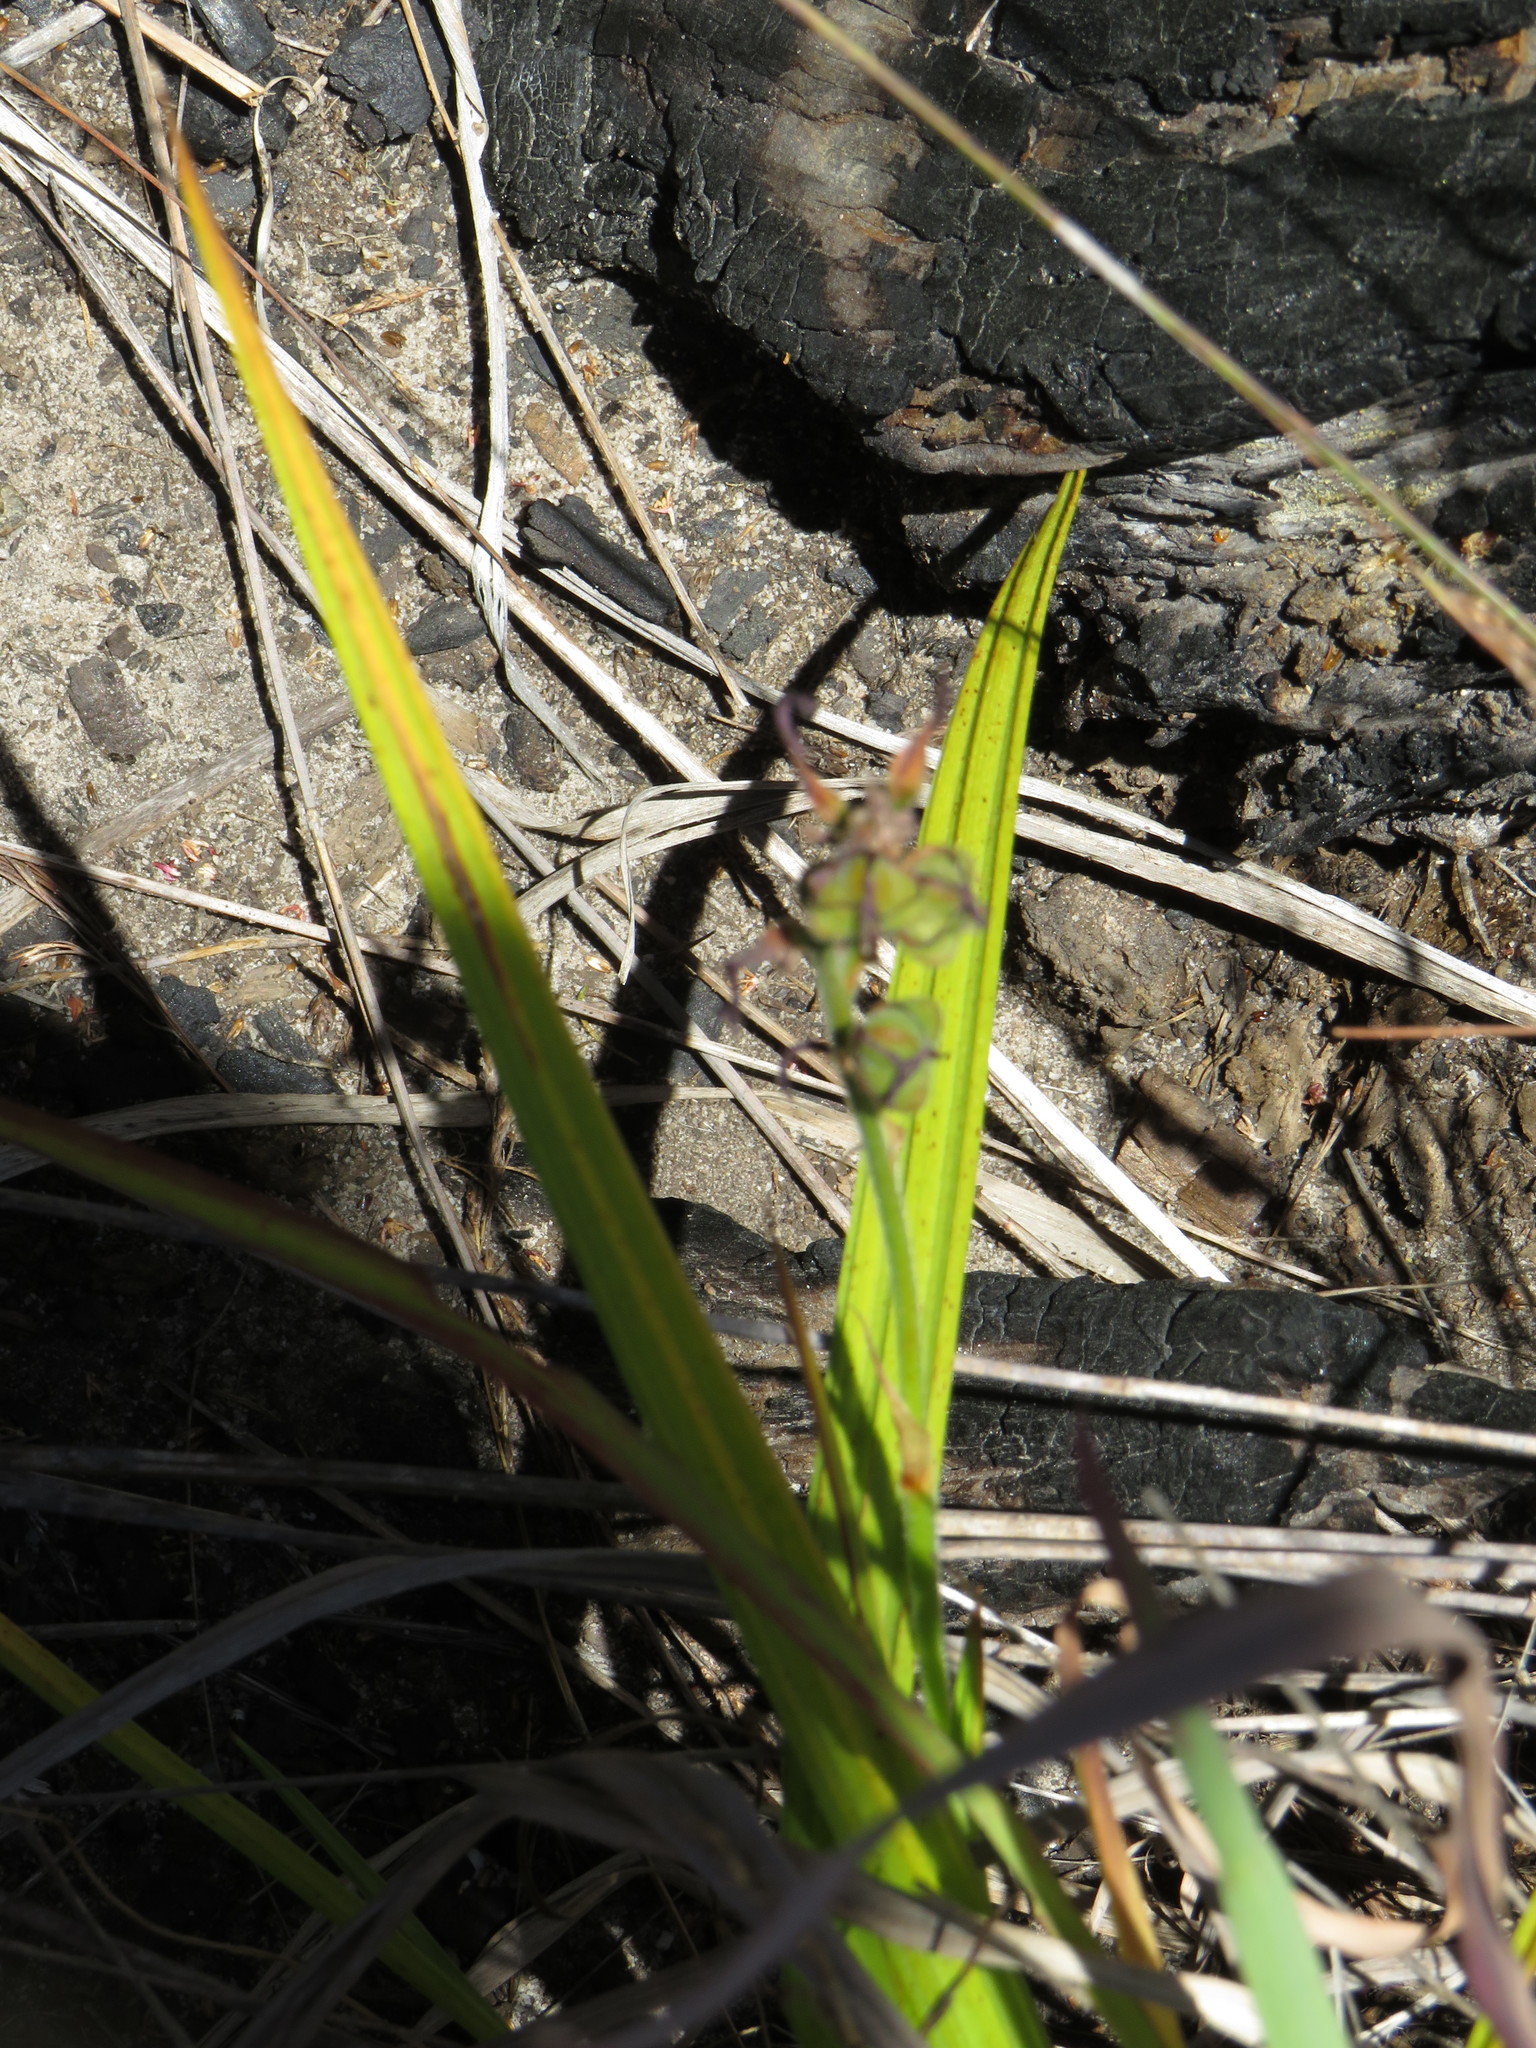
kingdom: Plantae
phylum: Tracheophyta
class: Liliopsida
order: Commelinales
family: Haemodoraceae
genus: Wachendorfia
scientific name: Wachendorfia paniculata
